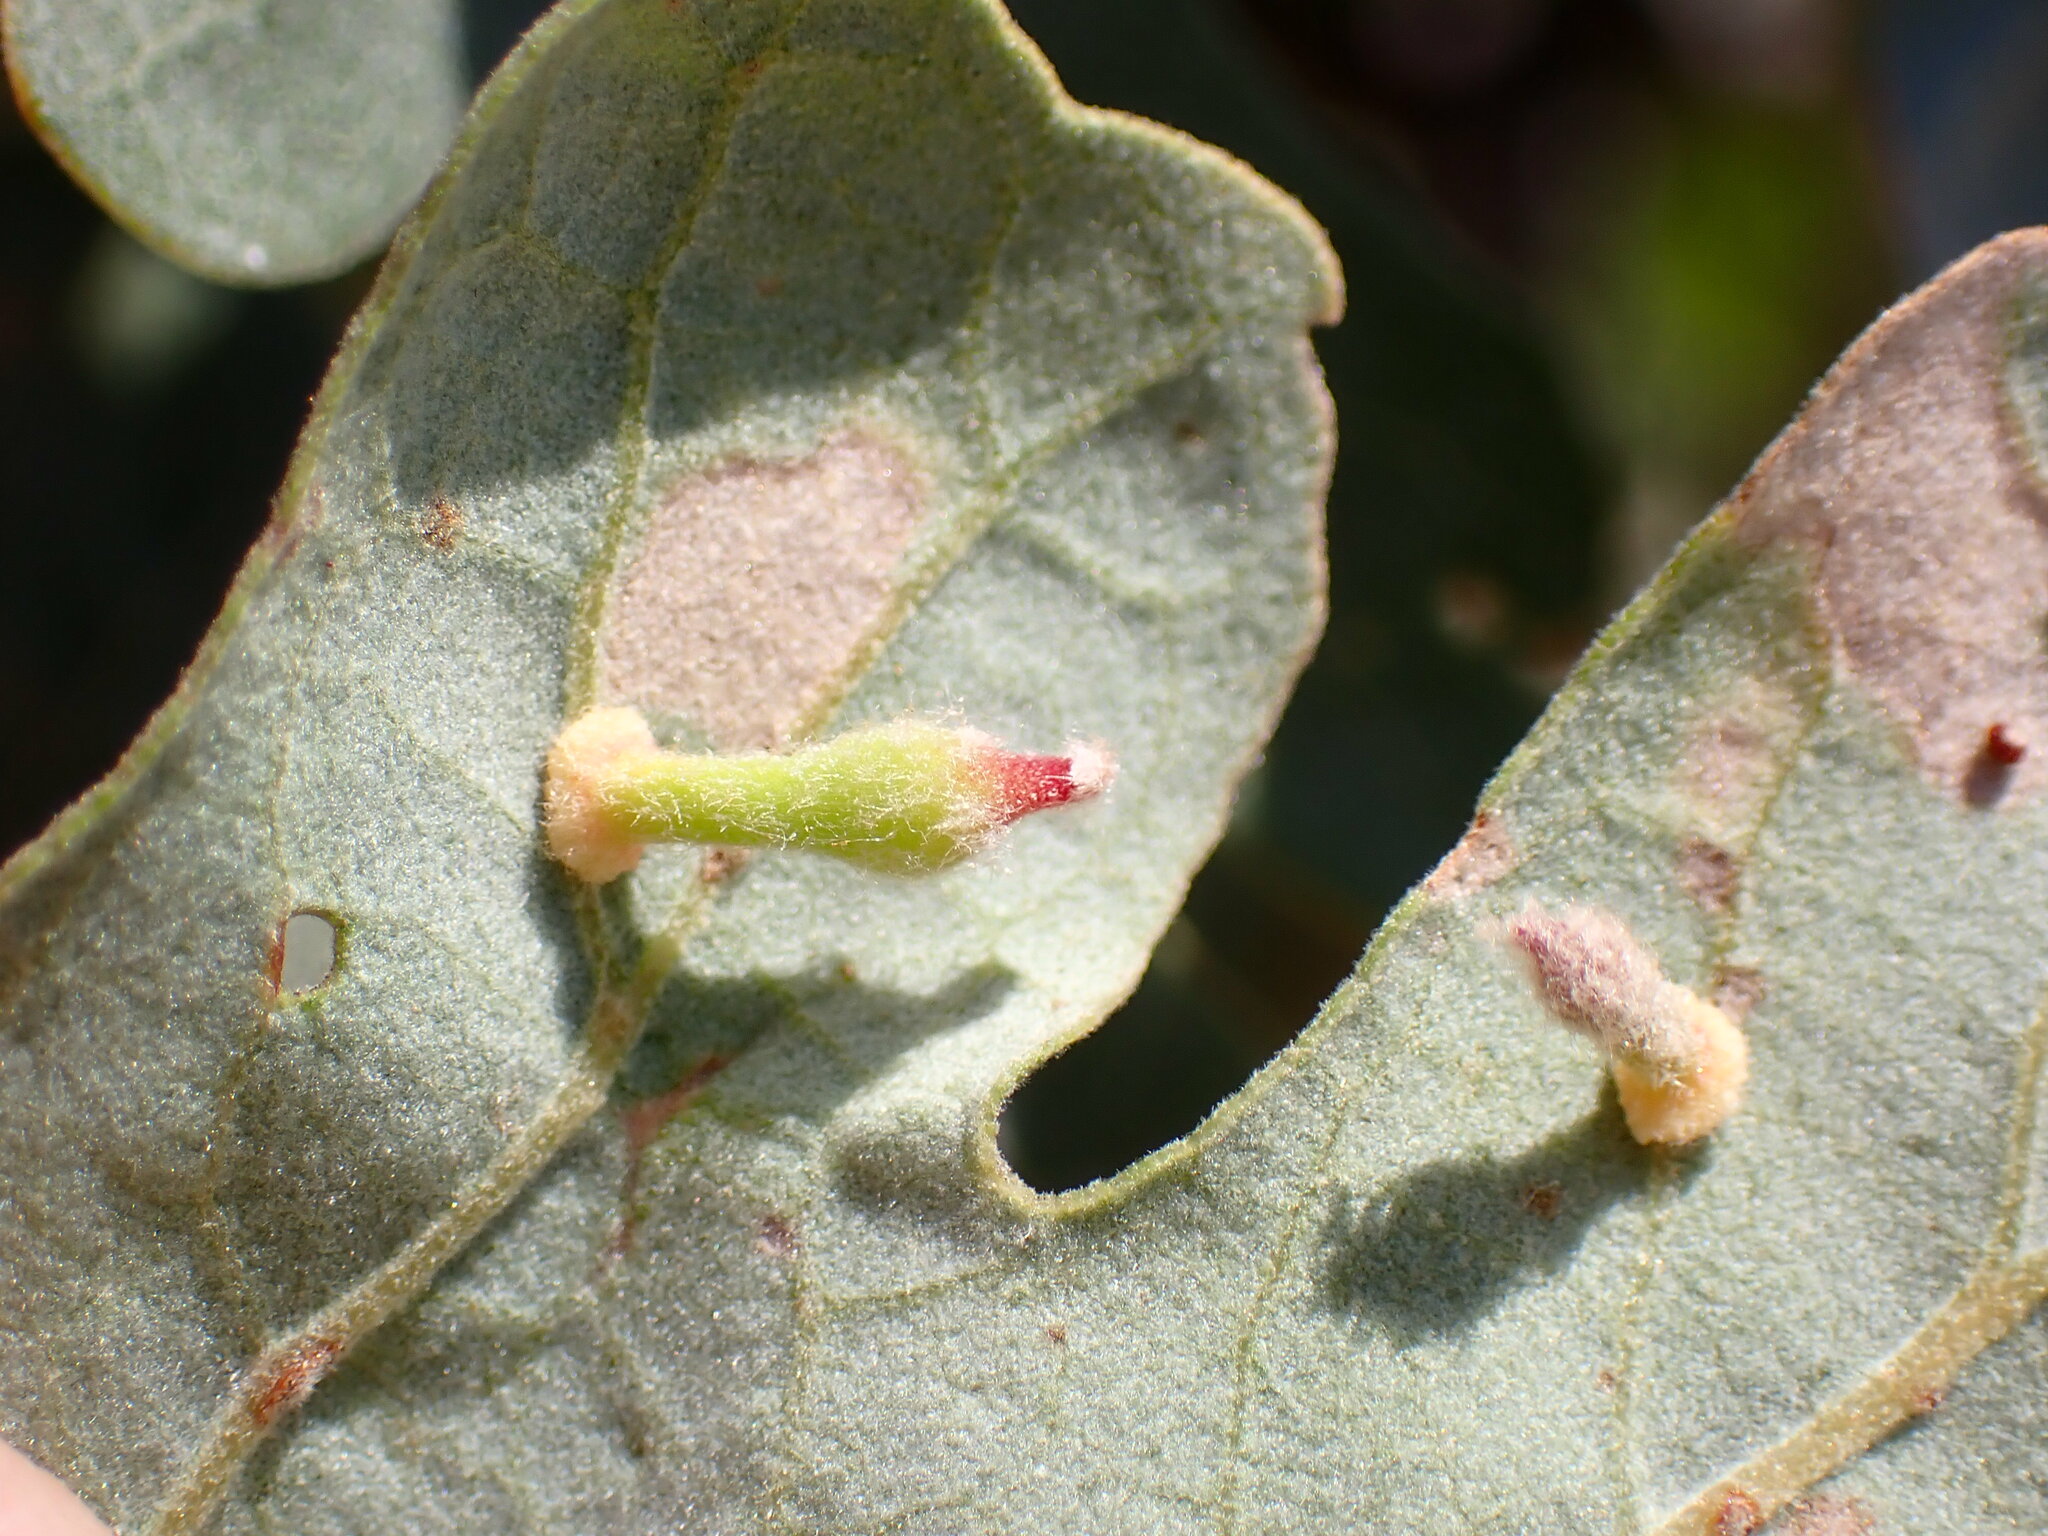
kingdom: Animalia
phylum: Arthropoda
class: Insecta
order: Hymenoptera
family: Cynipidae
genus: Atrusca
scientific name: Atrusca
